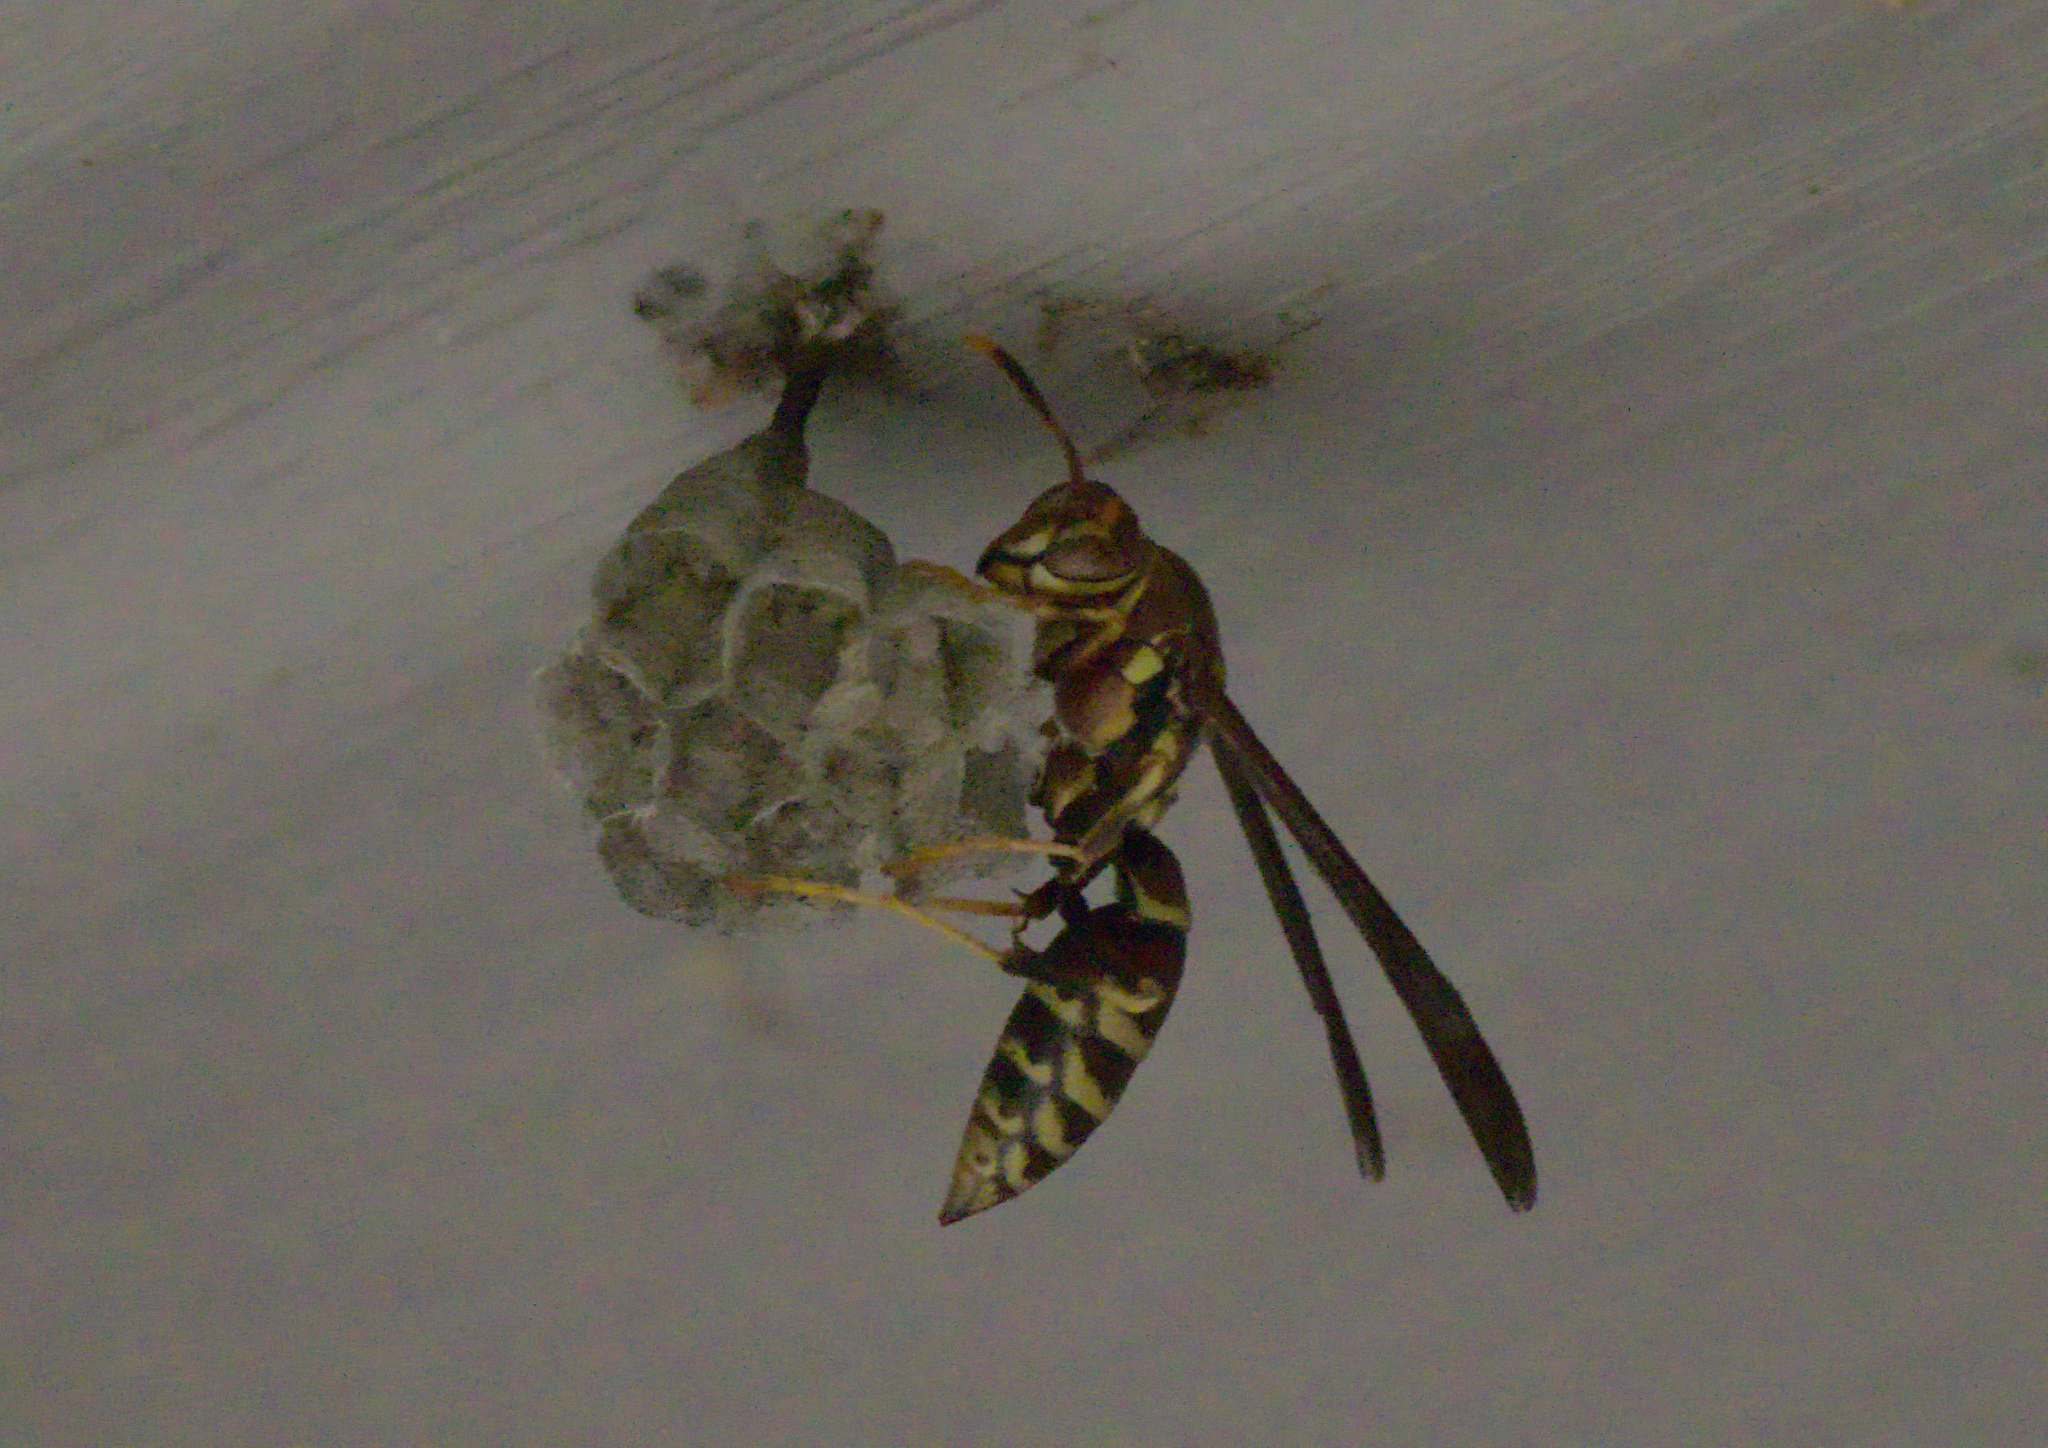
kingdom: Animalia
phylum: Arthropoda
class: Insecta
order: Hymenoptera
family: Eumenidae
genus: Polistes
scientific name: Polistes exclamans
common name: Paper wasp
